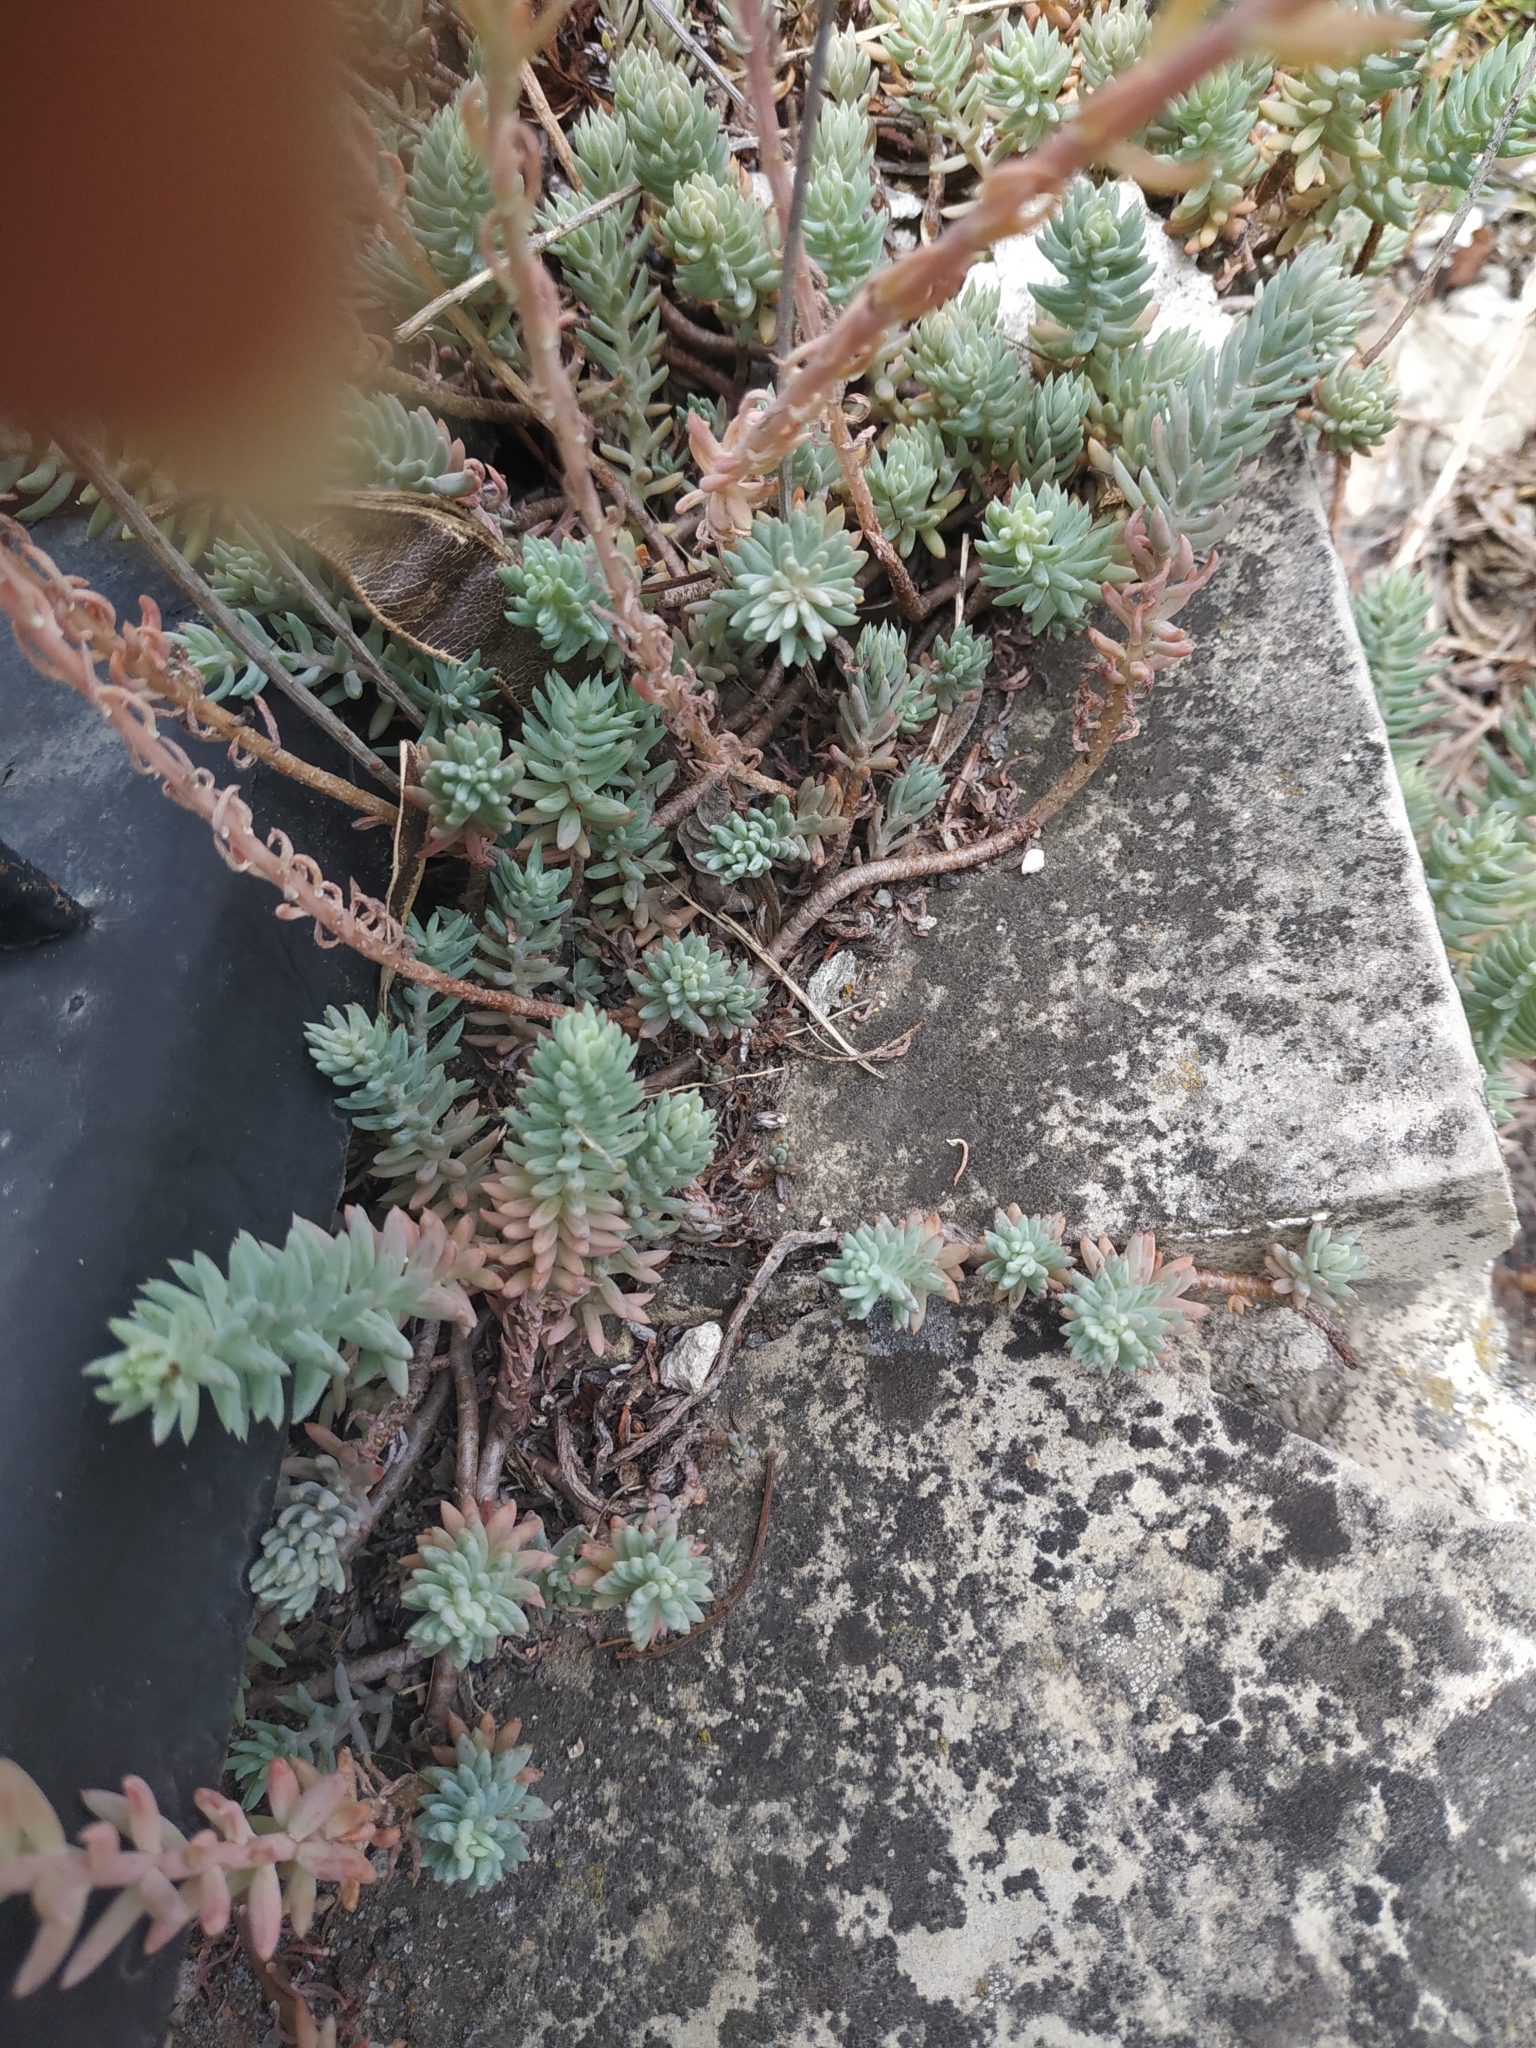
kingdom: Plantae
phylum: Tracheophyta
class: Magnoliopsida
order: Saxifragales
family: Crassulaceae
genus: Petrosedum
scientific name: Petrosedum rupestre
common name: Jenny's stonecrop
